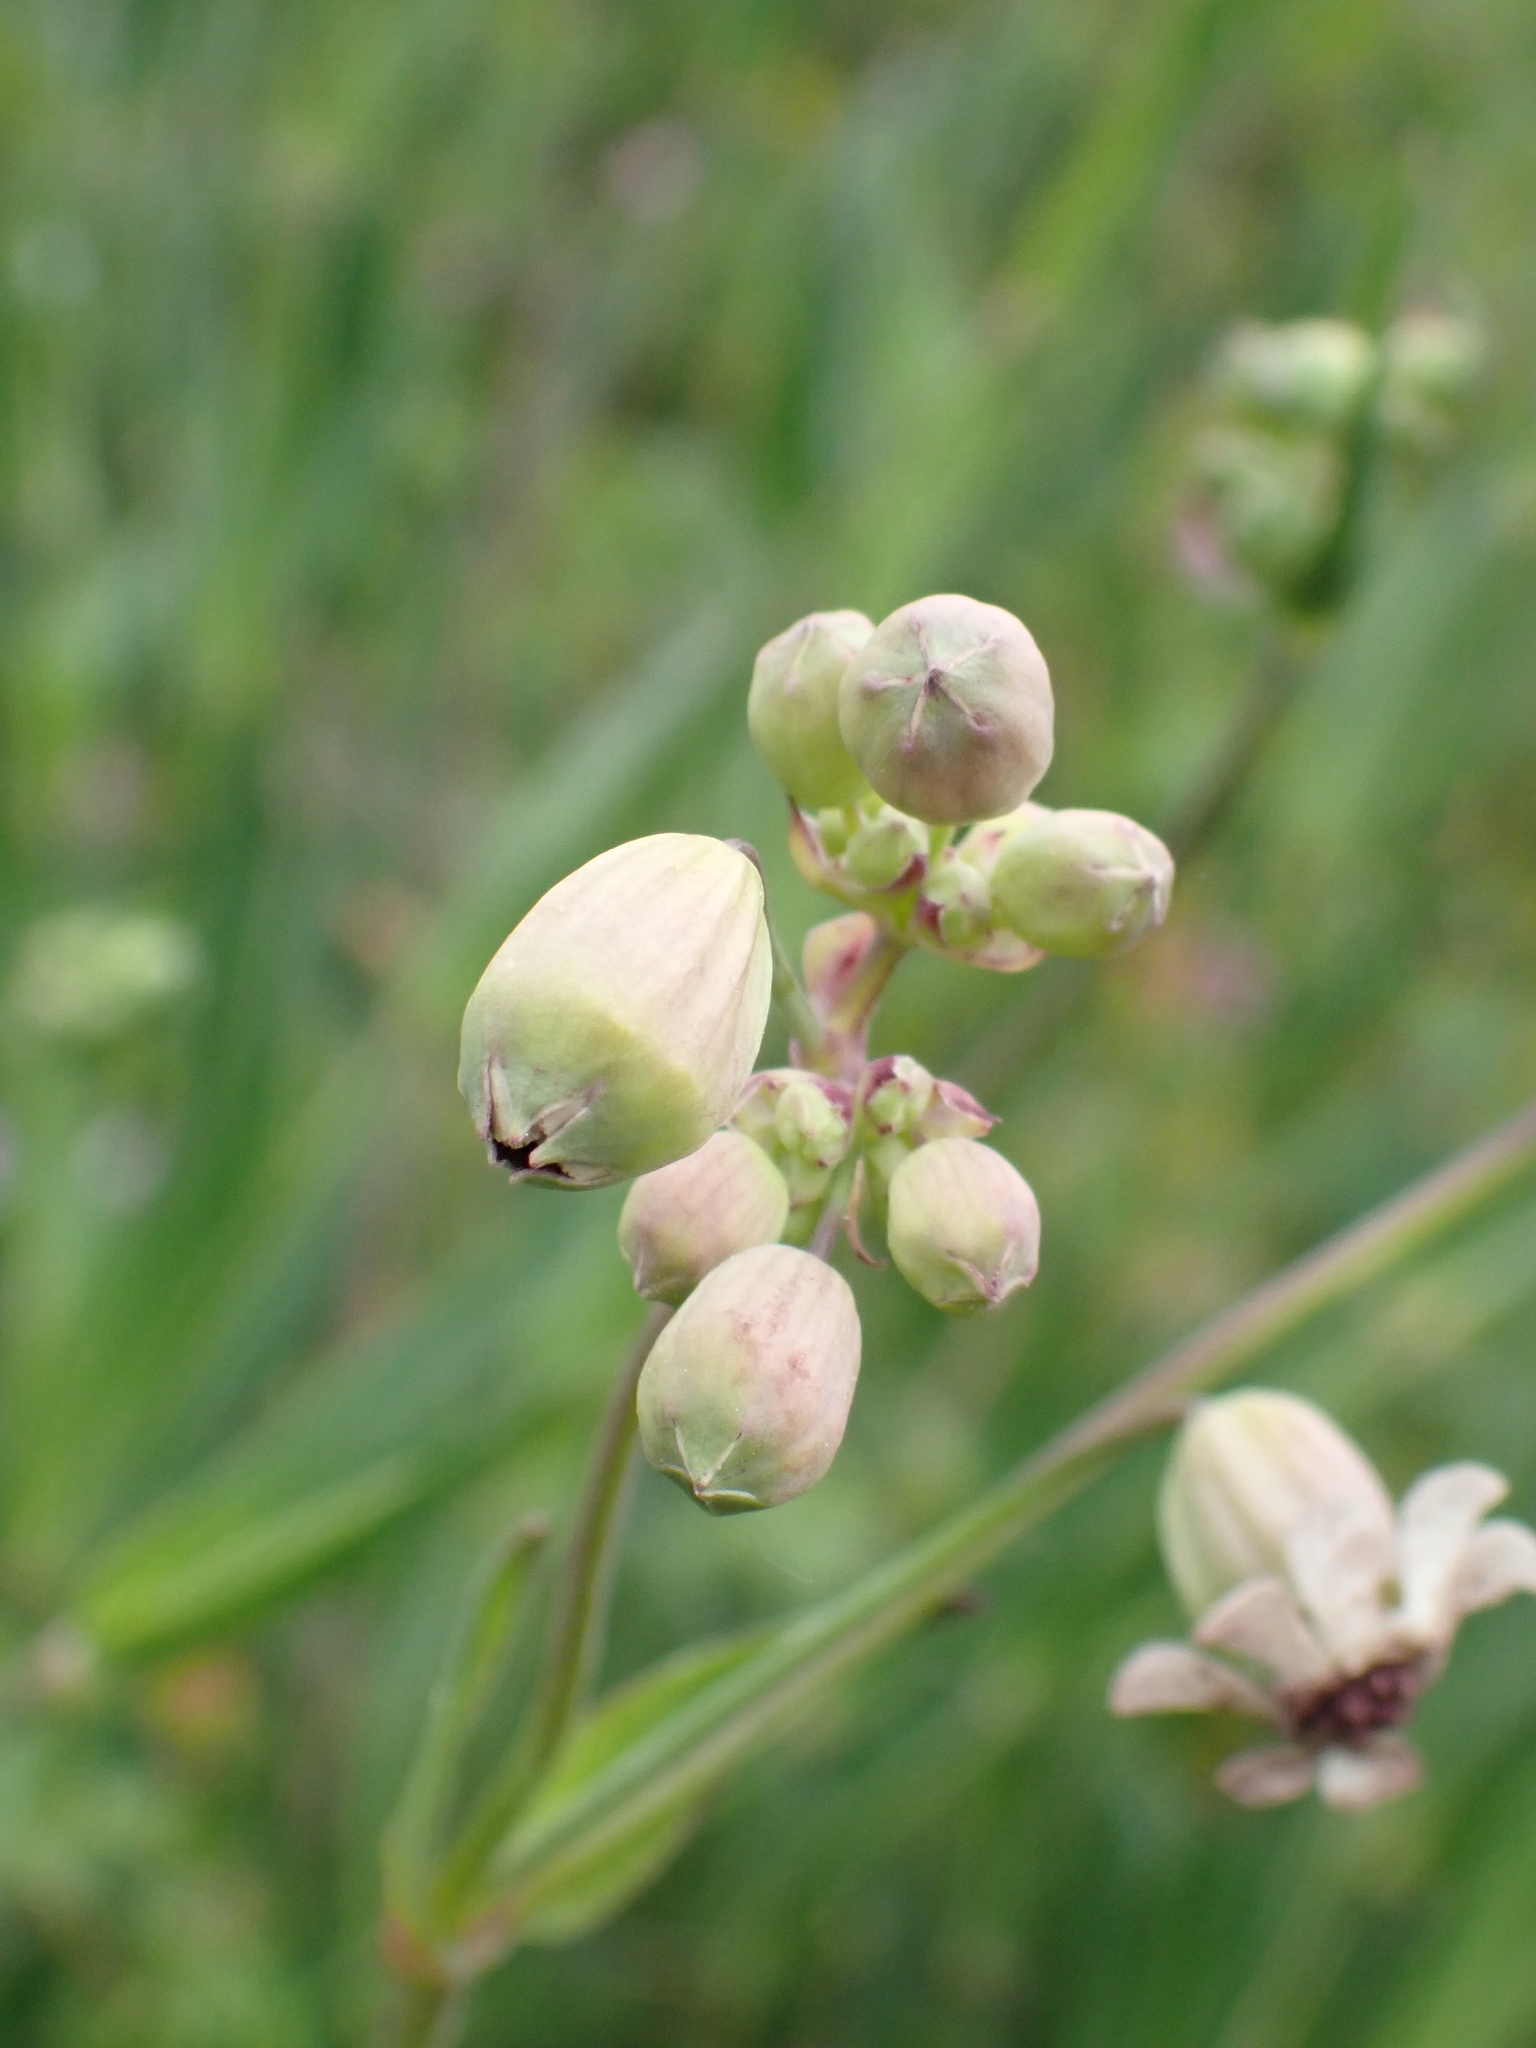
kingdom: Plantae
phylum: Tracheophyta
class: Magnoliopsida
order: Caryophyllales
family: Caryophyllaceae
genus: Silene
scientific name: Silene vulgaris
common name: Bladder campion
